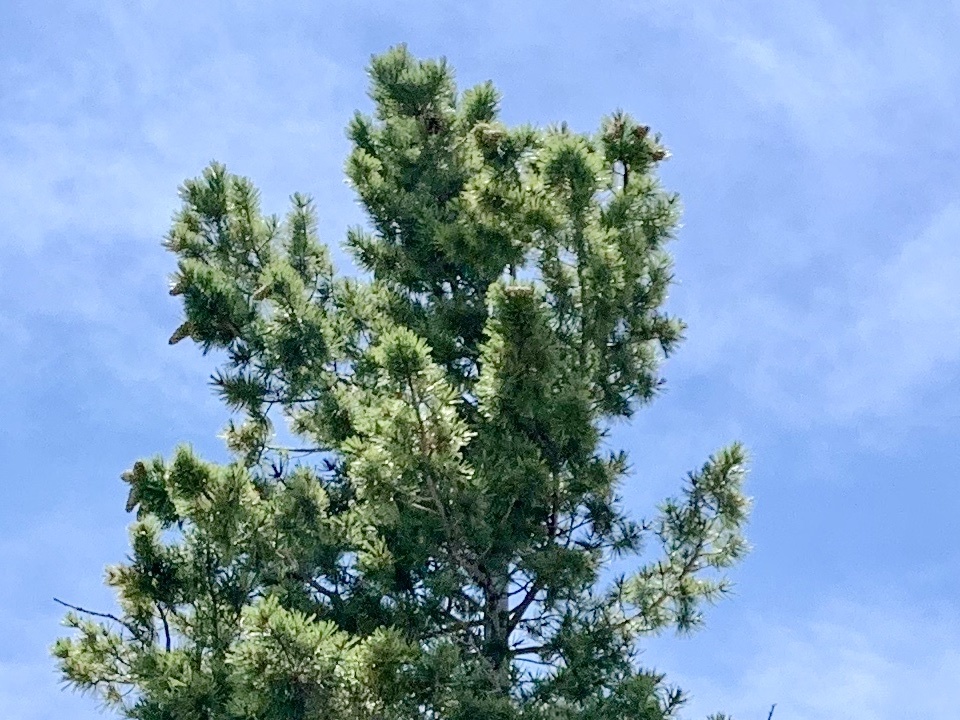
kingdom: Plantae
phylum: Tracheophyta
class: Pinopsida
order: Pinales
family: Pinaceae
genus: Pinus
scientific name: Pinus strobiformis
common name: Southwestern white pine
